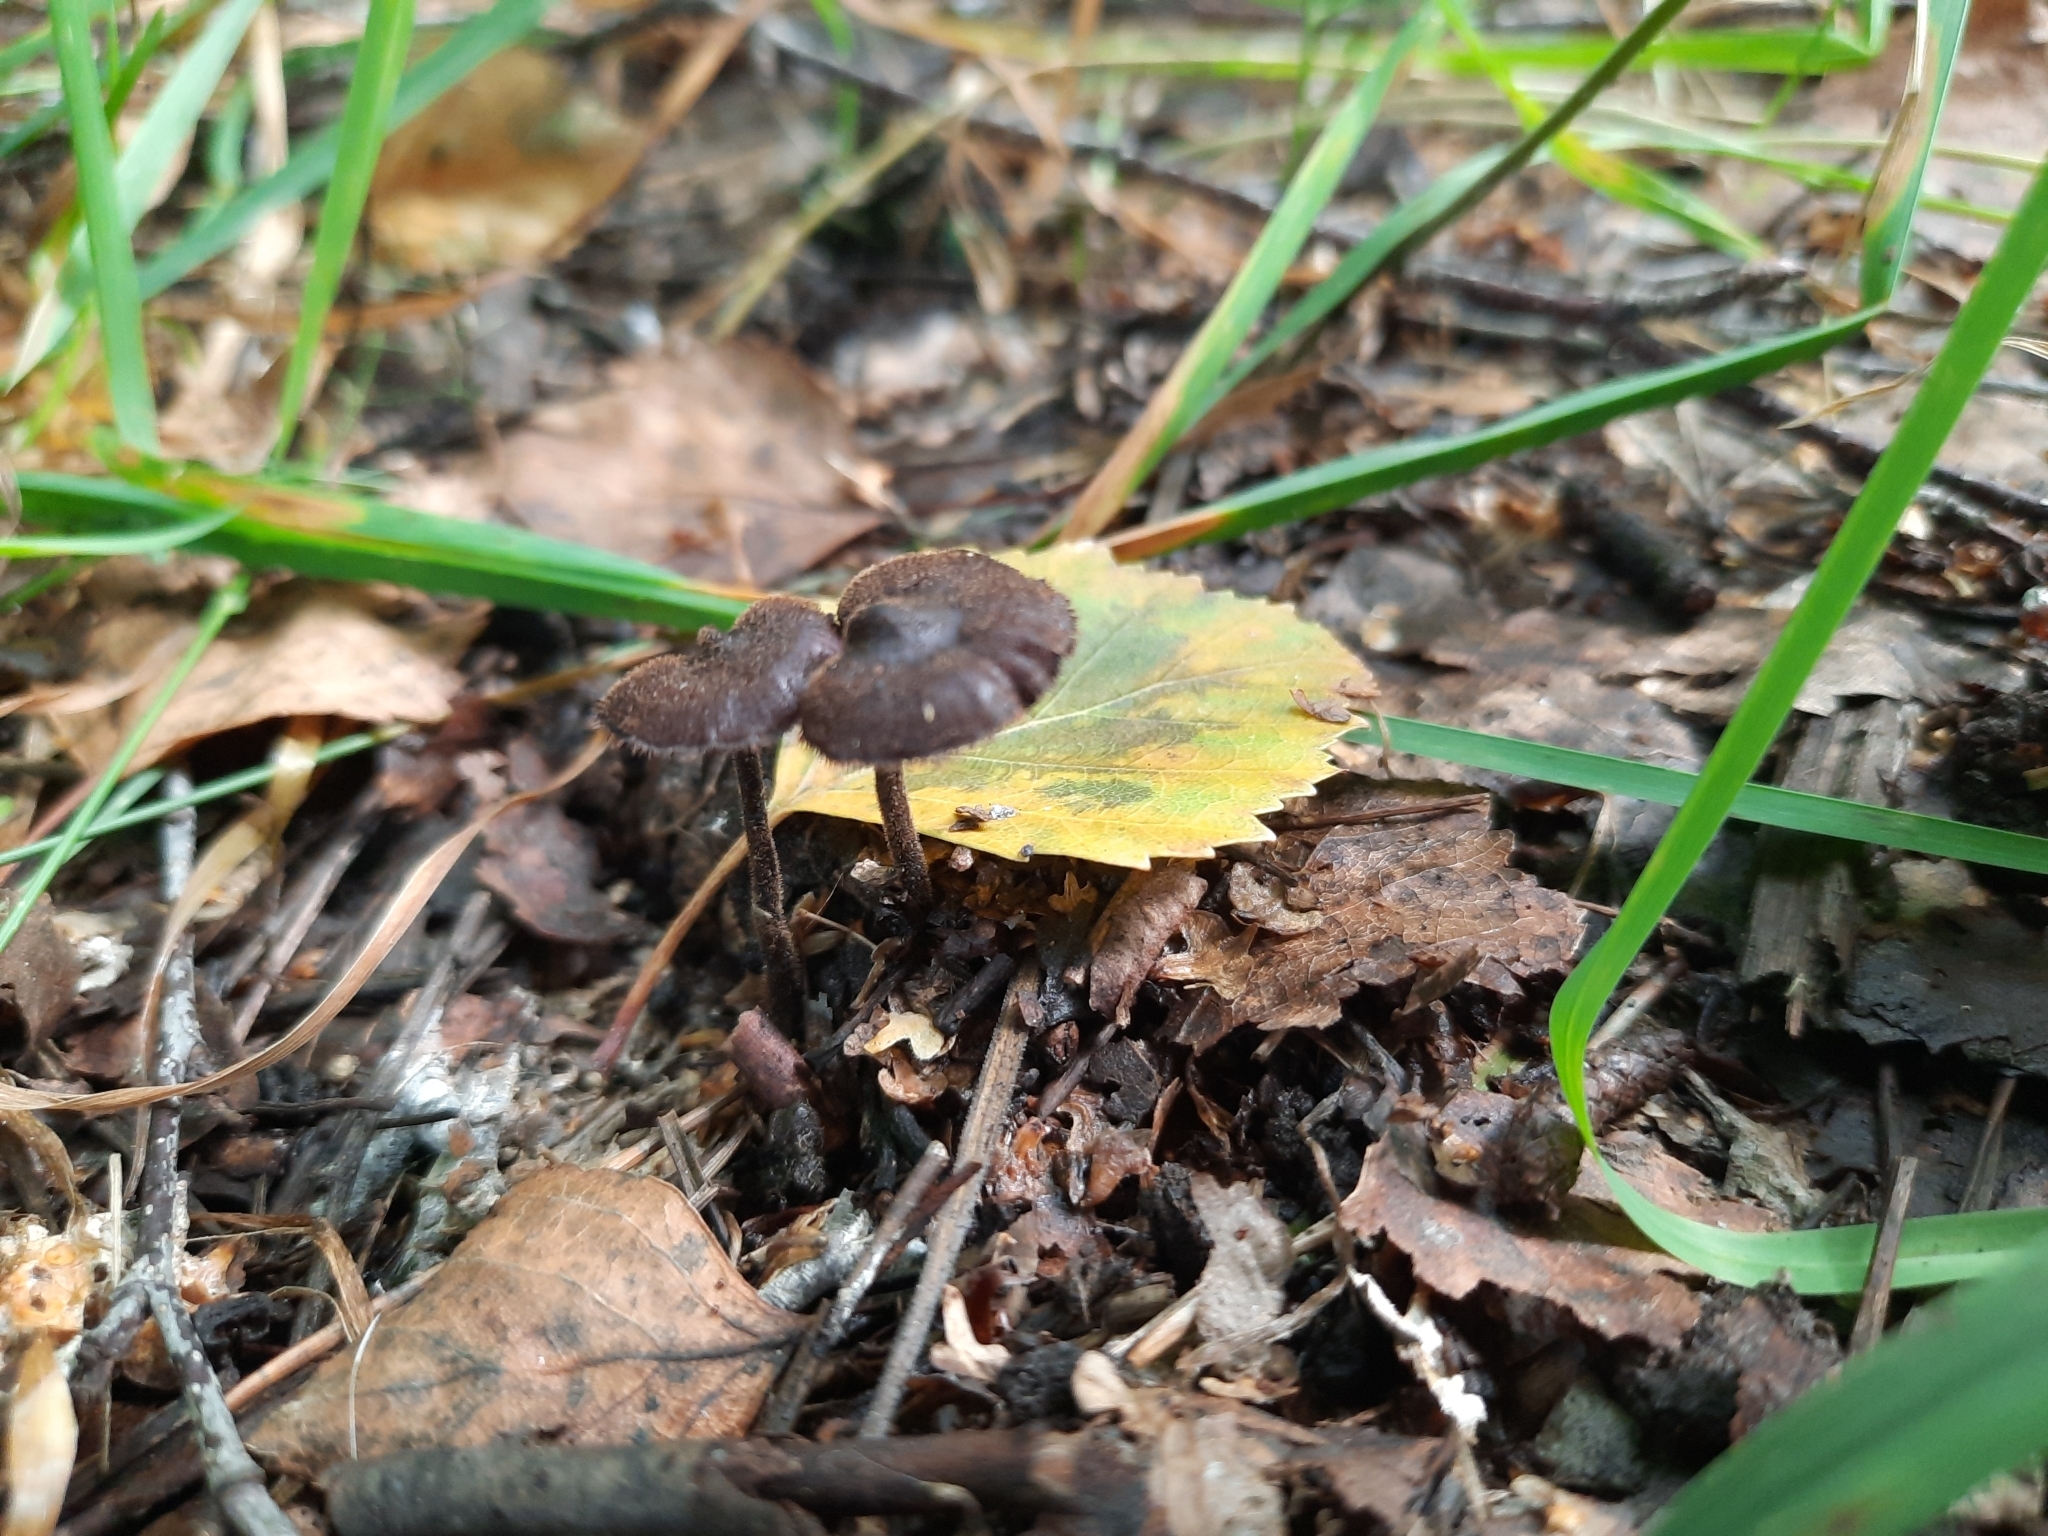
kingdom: Fungi
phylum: Basidiomycota
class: Agaricomycetes
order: Russulales
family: Auriscalpiaceae
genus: Auriscalpium
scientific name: Auriscalpium vulgare
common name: Earpick fungus
